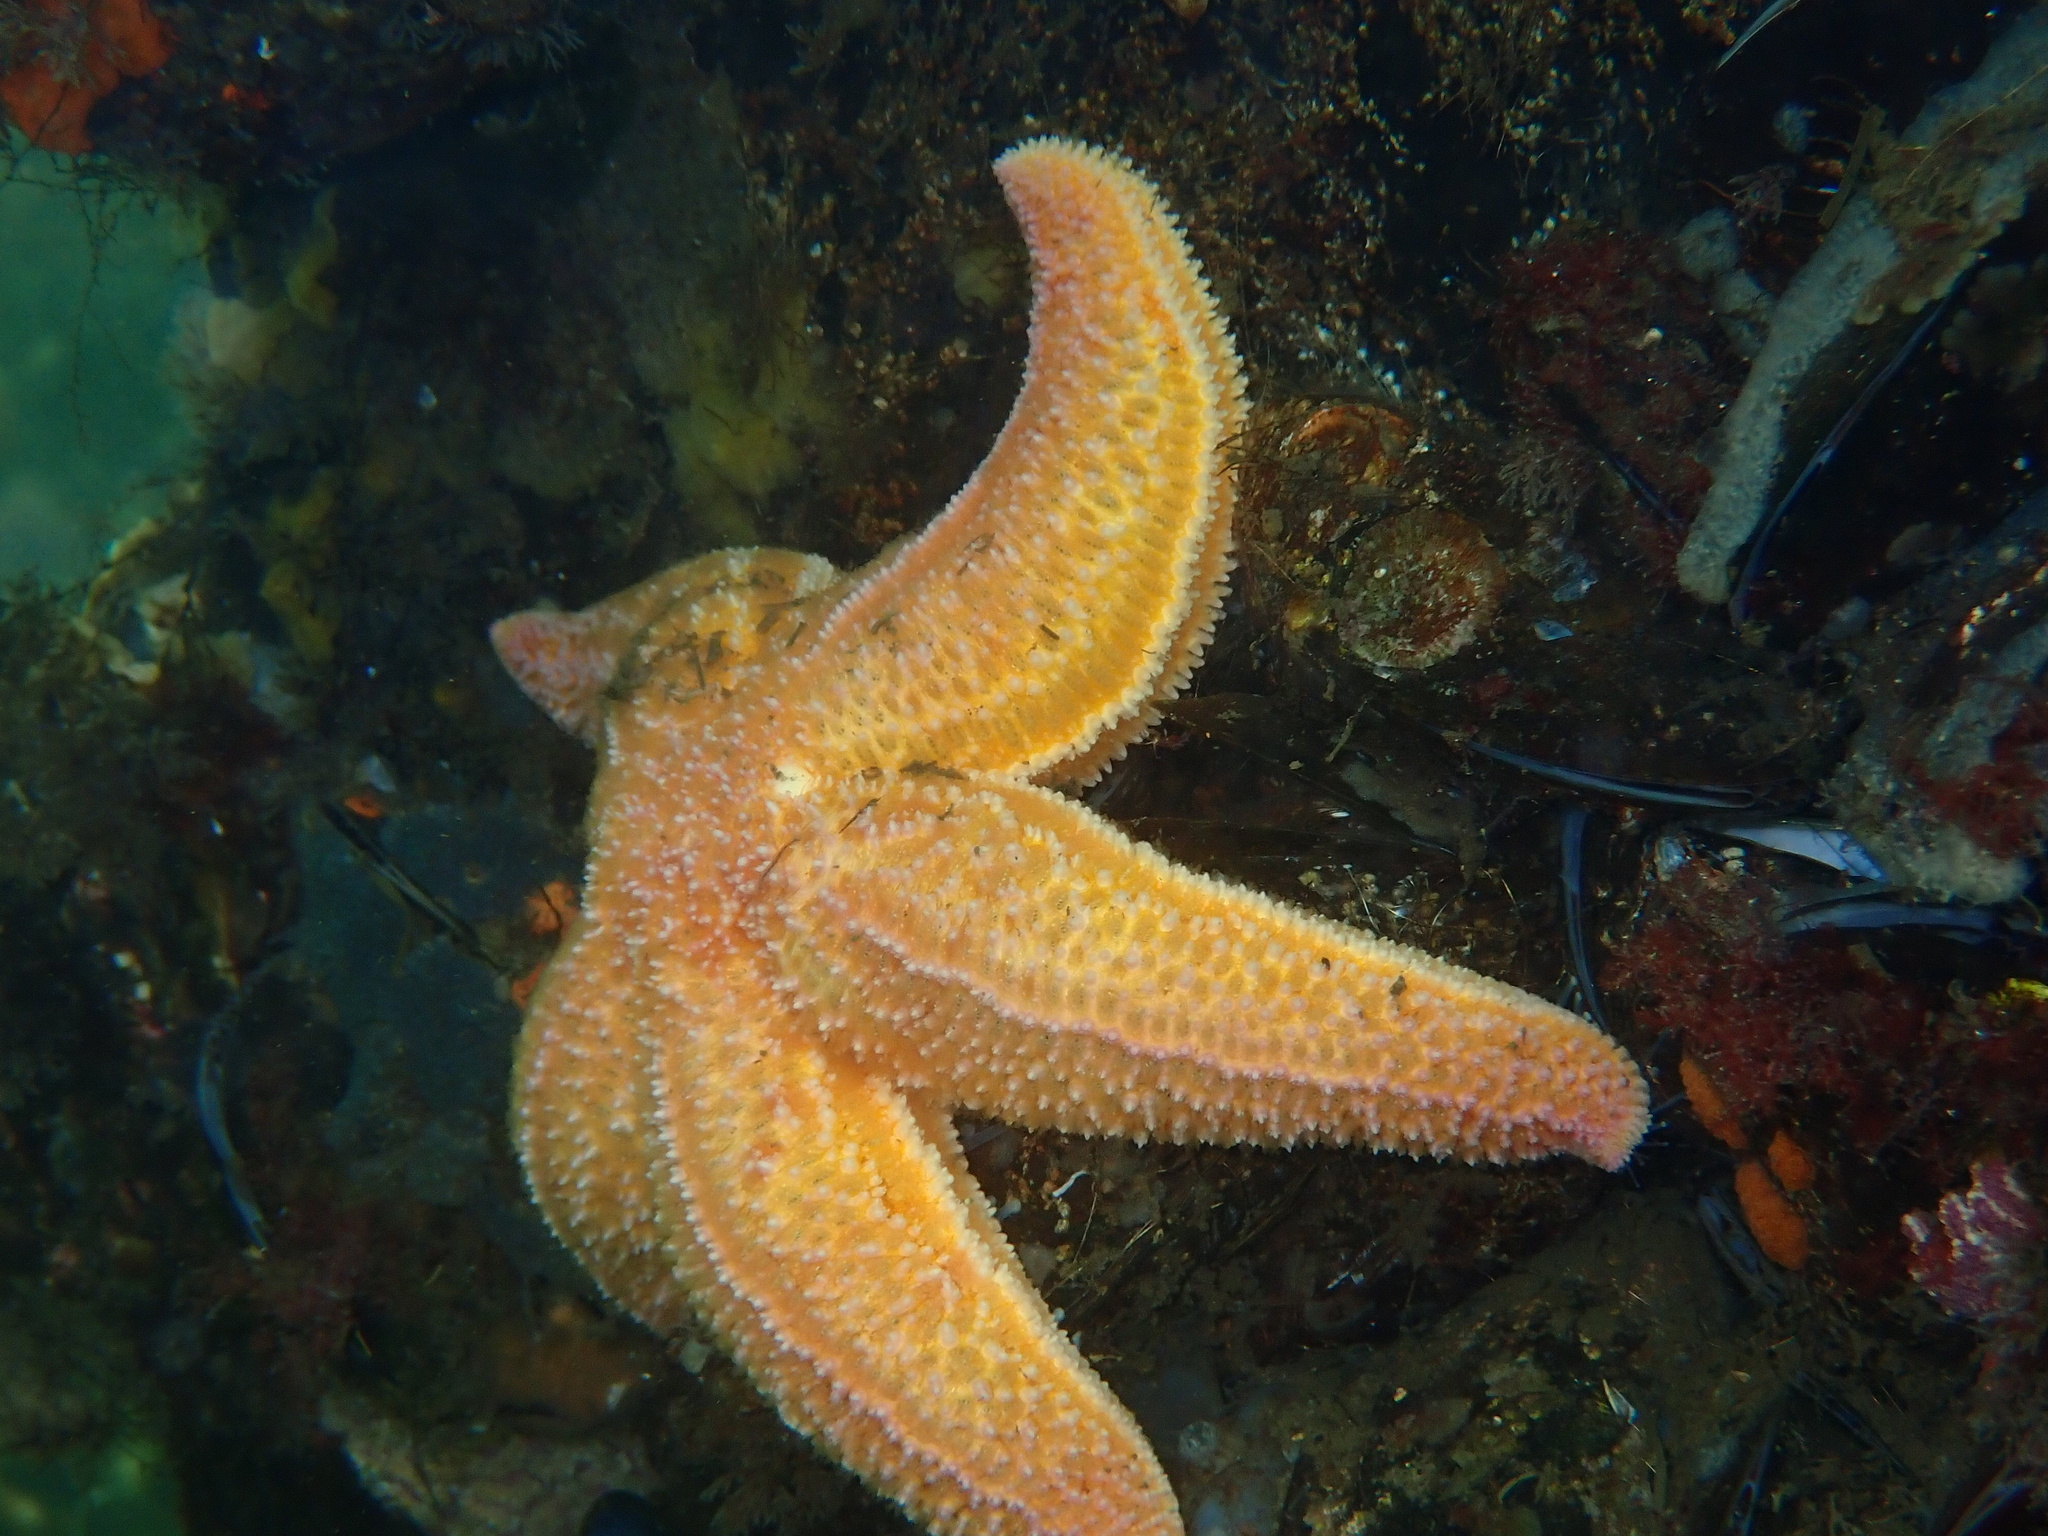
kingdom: Animalia
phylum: Echinodermata
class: Asteroidea
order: Forcipulatida
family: Asteriidae
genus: Asterias
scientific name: Asterias rubens
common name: Common starfish
